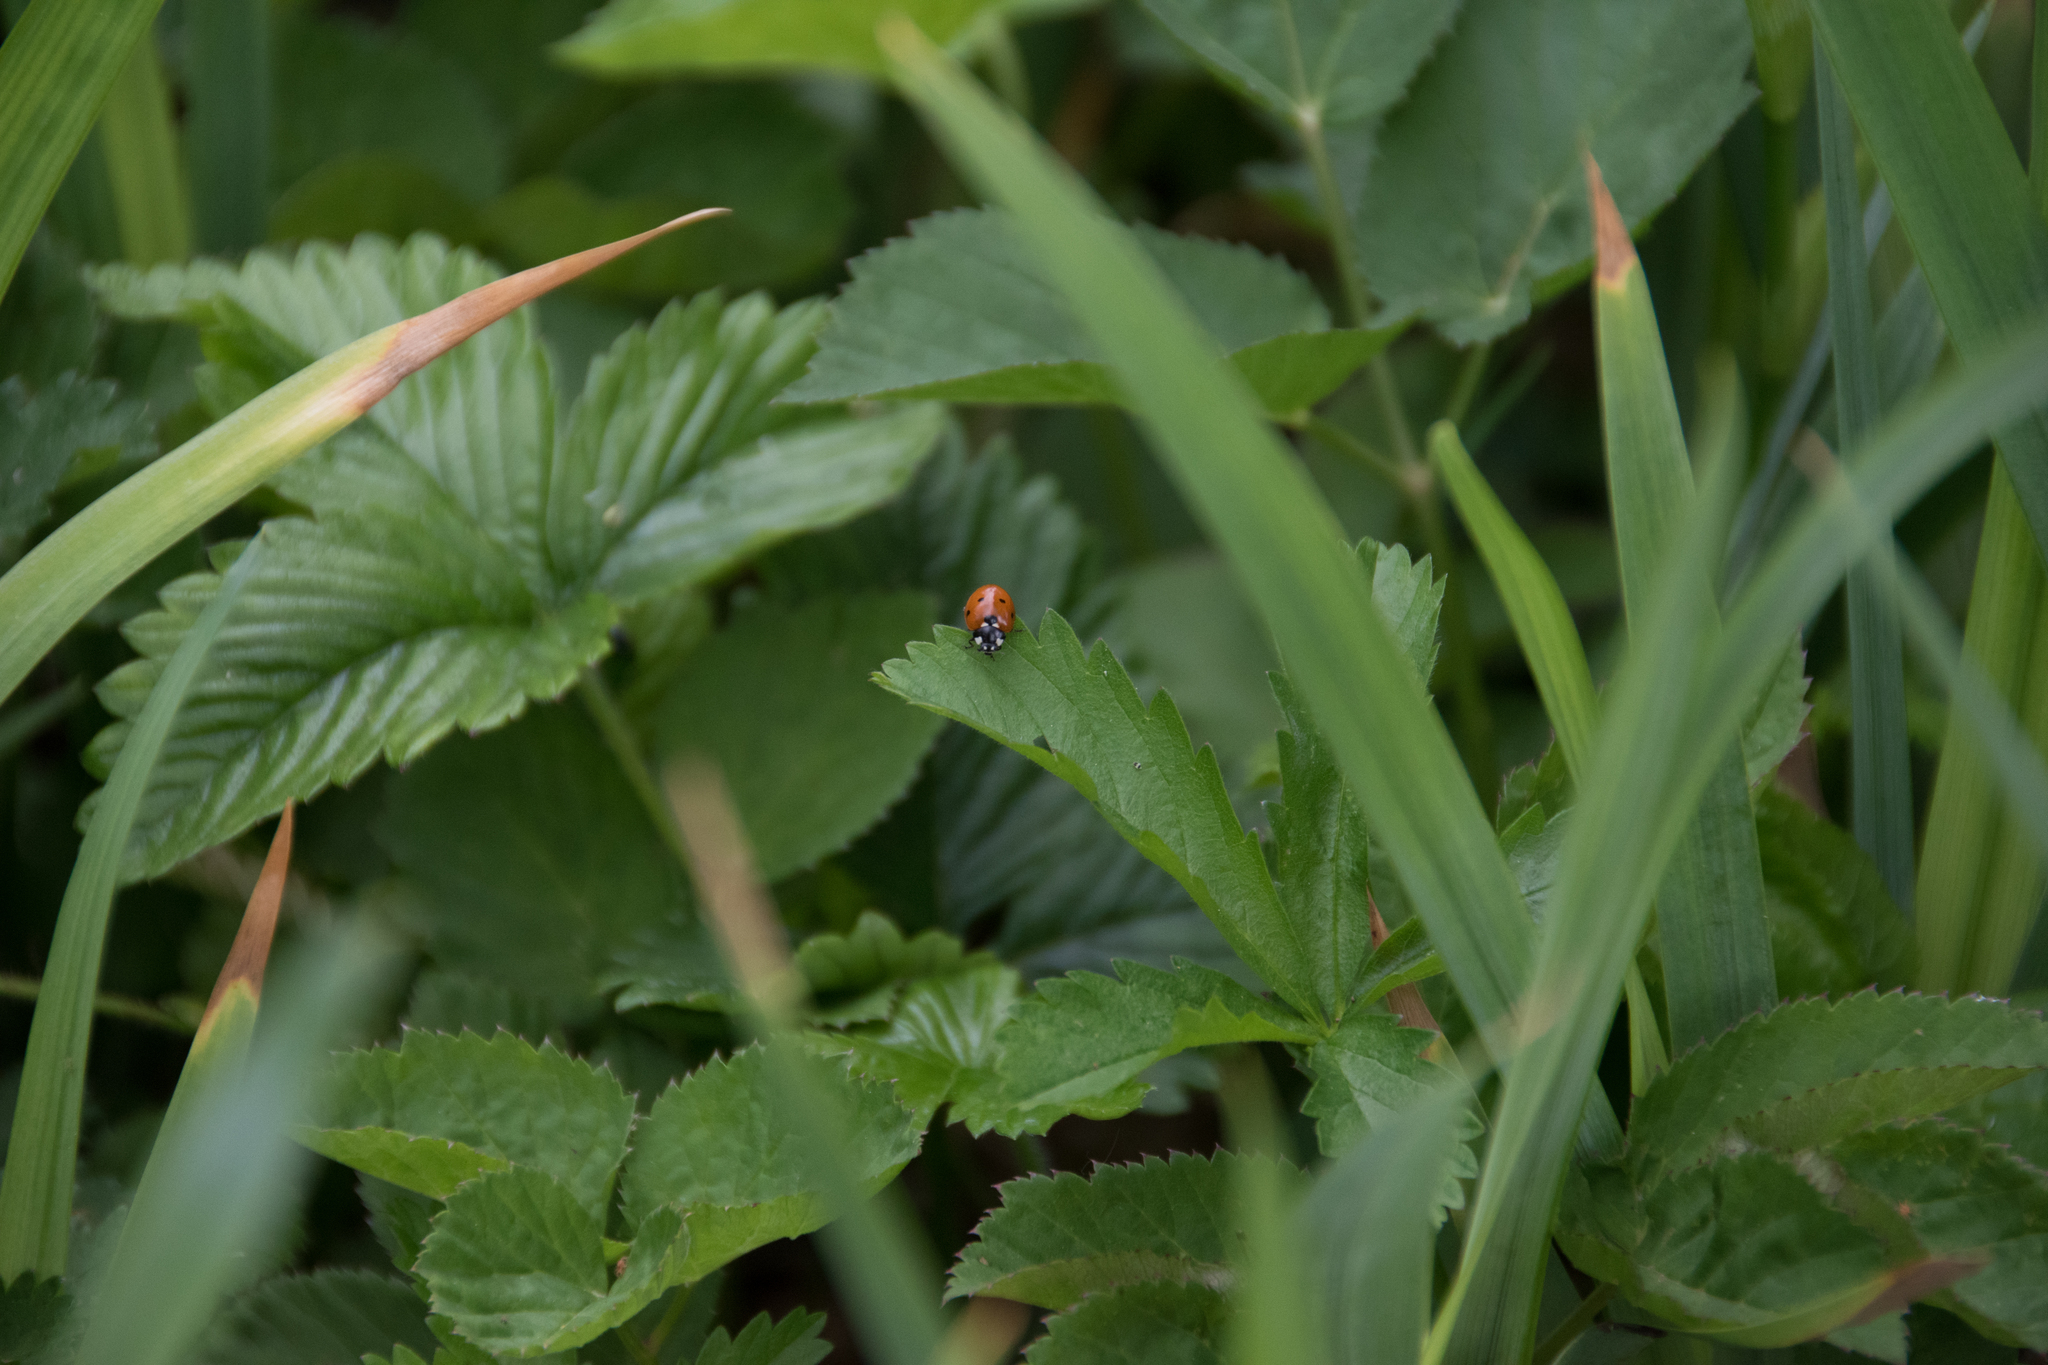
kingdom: Animalia
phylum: Arthropoda
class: Insecta
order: Coleoptera
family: Coccinellidae
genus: Coccinella
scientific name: Coccinella septempunctata
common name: Sevenspotted lady beetle
